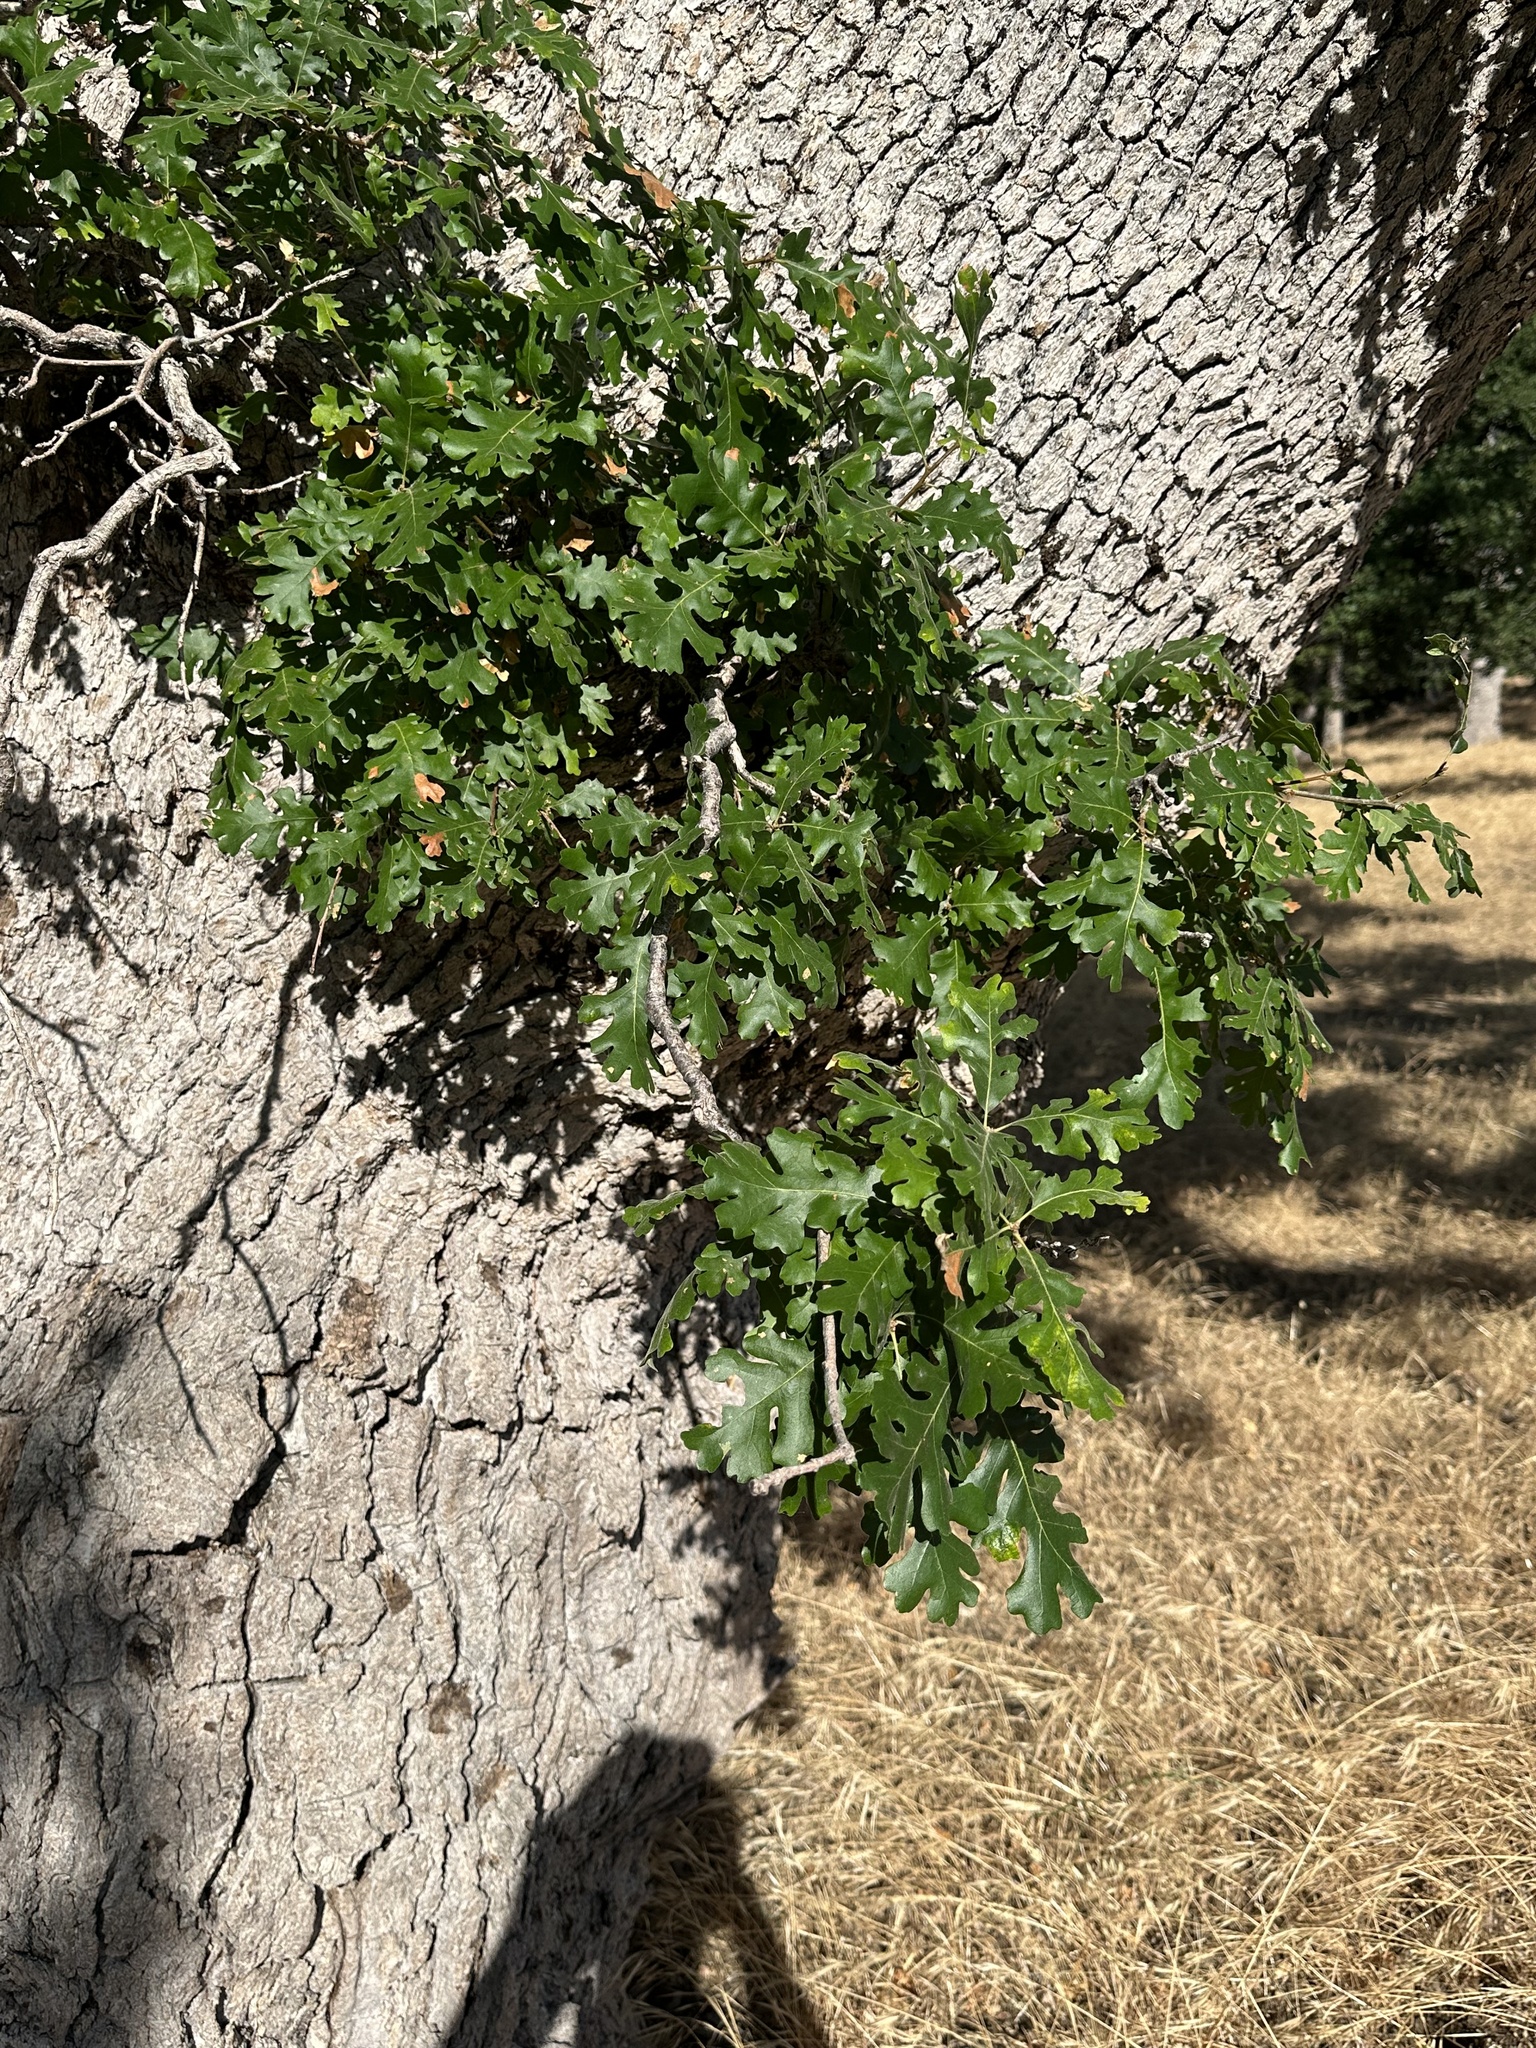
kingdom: Plantae
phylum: Tracheophyta
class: Magnoliopsida
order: Fagales
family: Fagaceae
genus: Quercus
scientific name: Quercus lobata
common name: Valley oak
